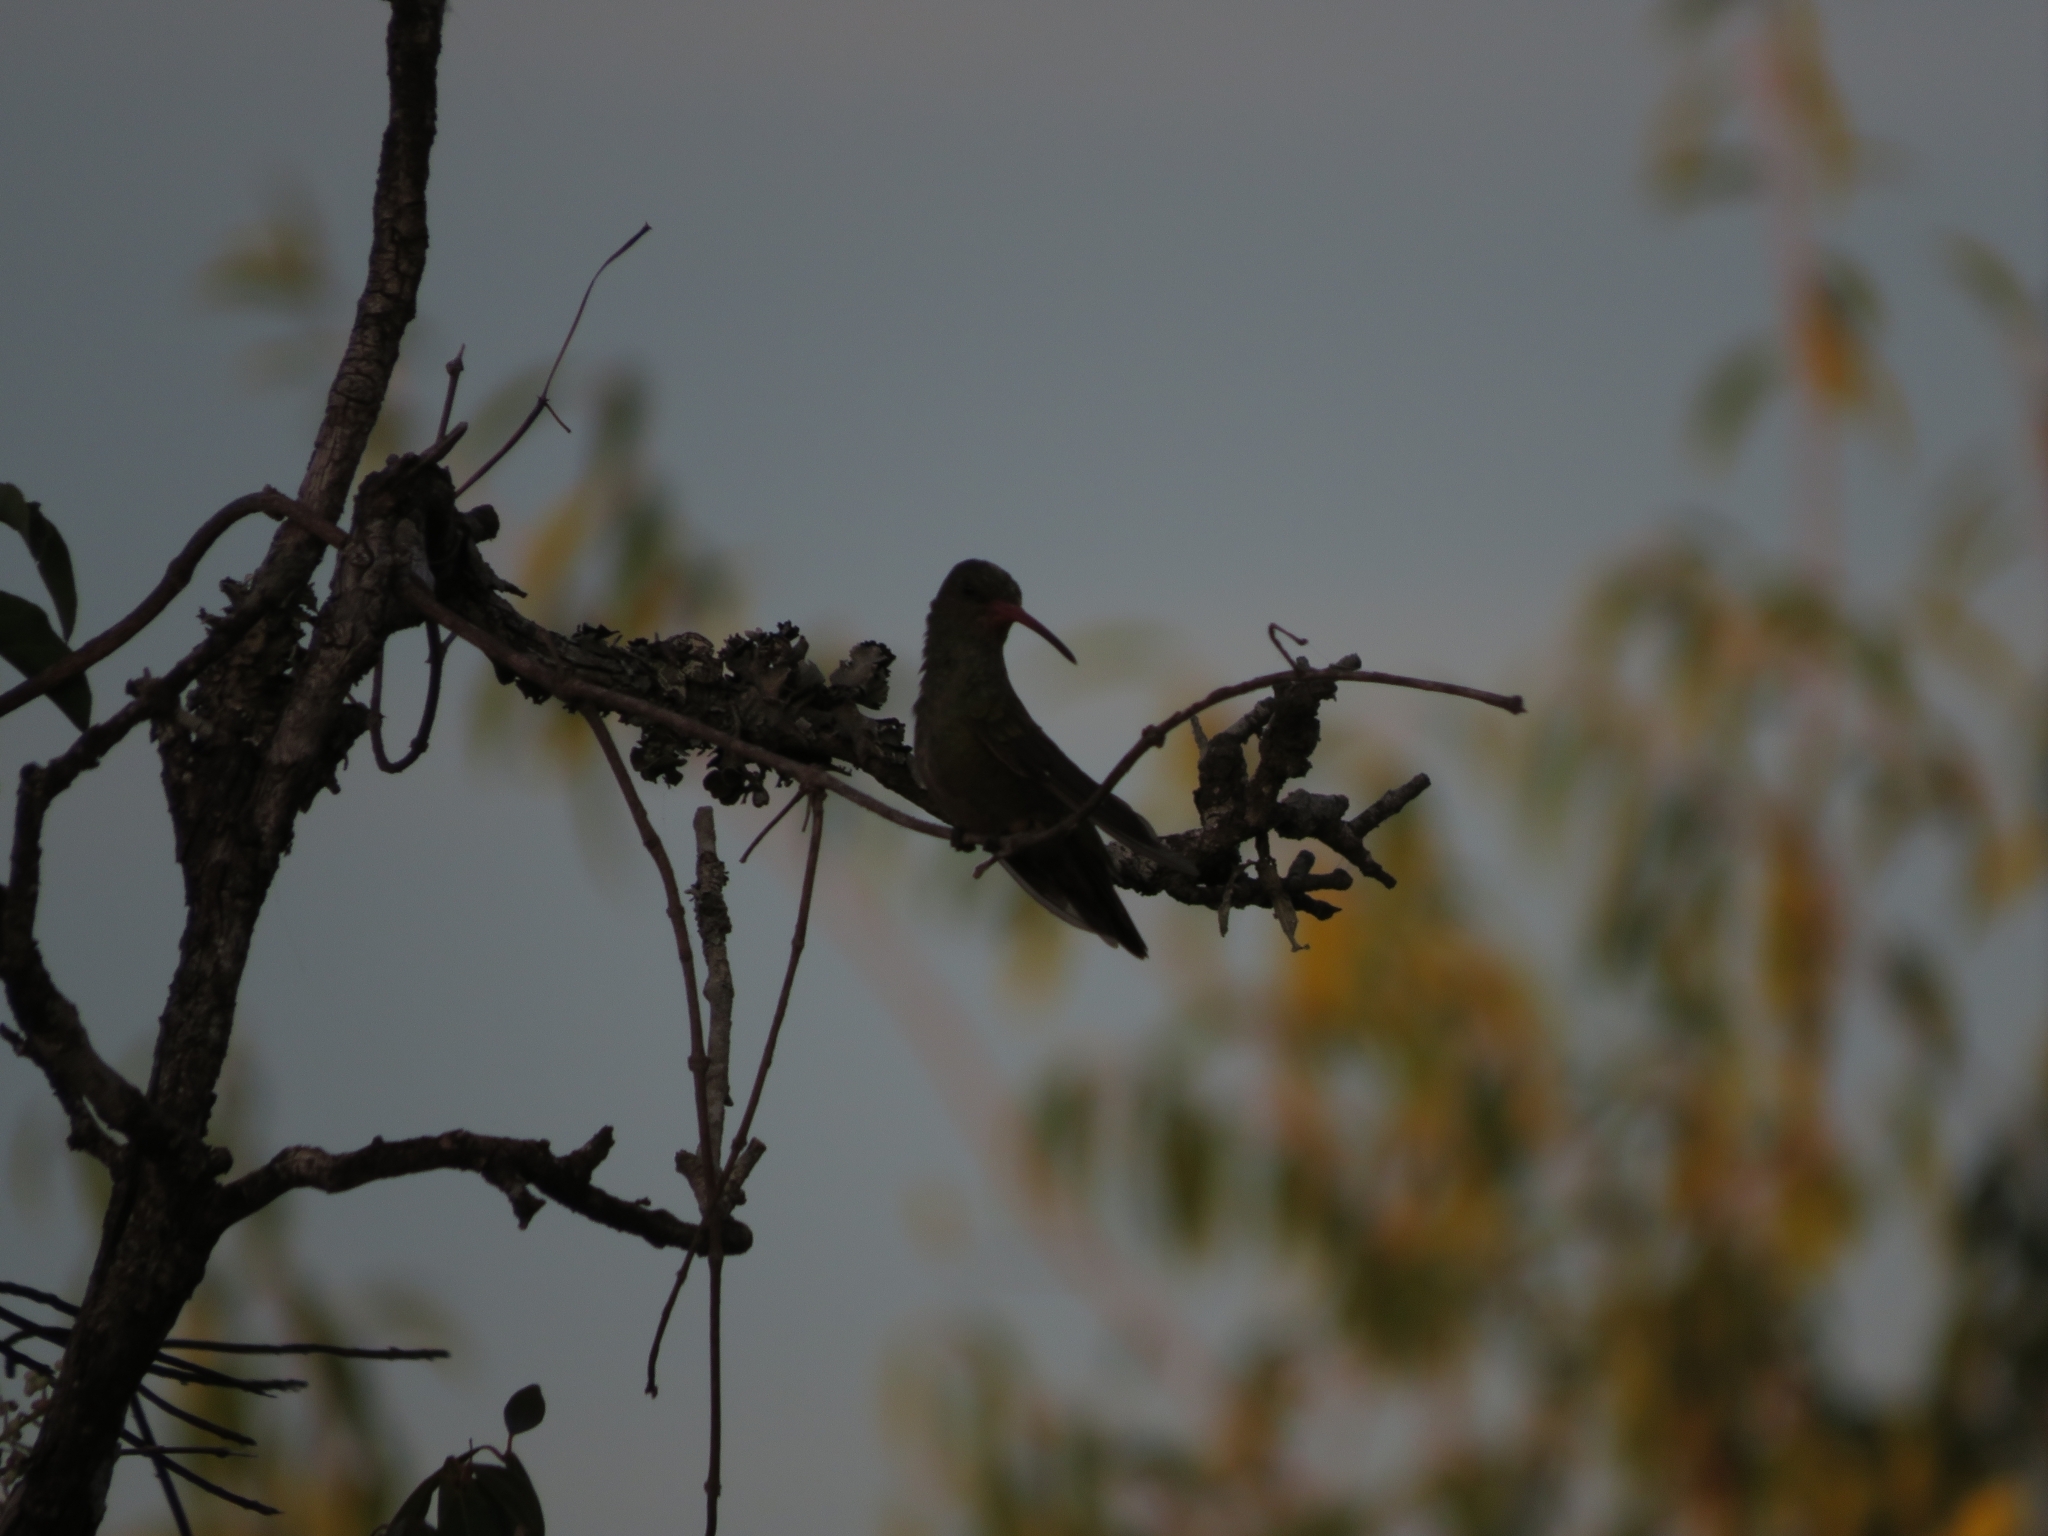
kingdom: Animalia
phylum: Chordata
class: Aves
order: Apodiformes
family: Trochilidae
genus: Hylocharis
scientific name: Hylocharis chrysura
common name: Gilded sapphire
